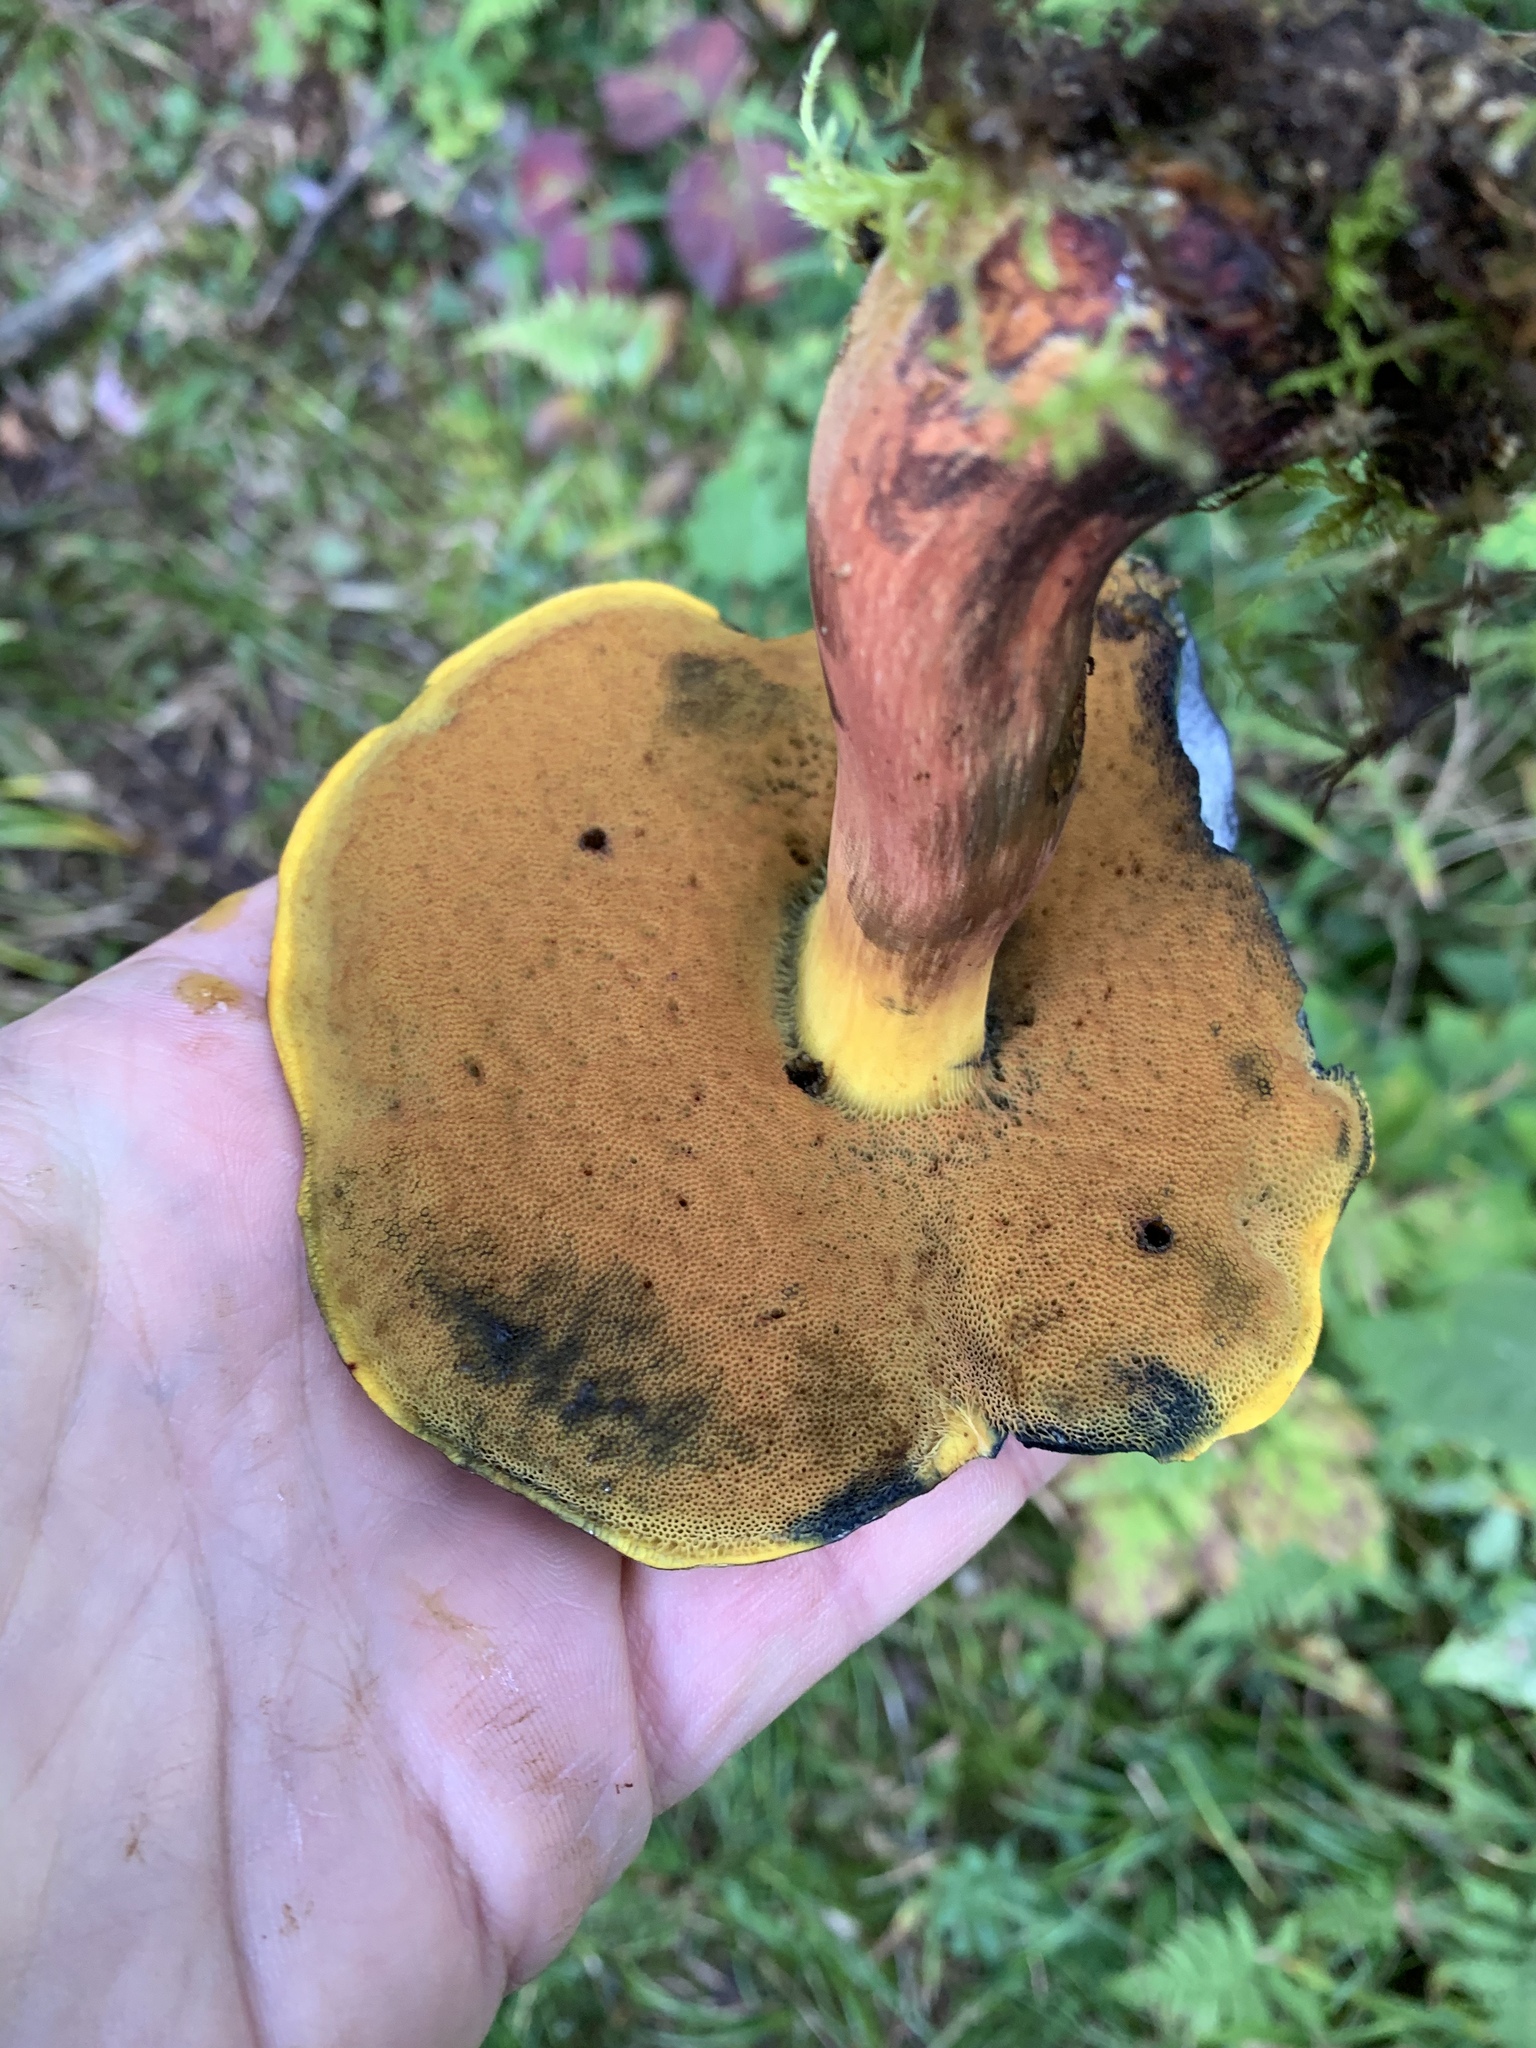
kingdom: Fungi
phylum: Basidiomycota
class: Agaricomycetes
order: Boletales
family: Boletaceae
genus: Boletus
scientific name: Boletus subvelutipes
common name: Red-mouth bolete
